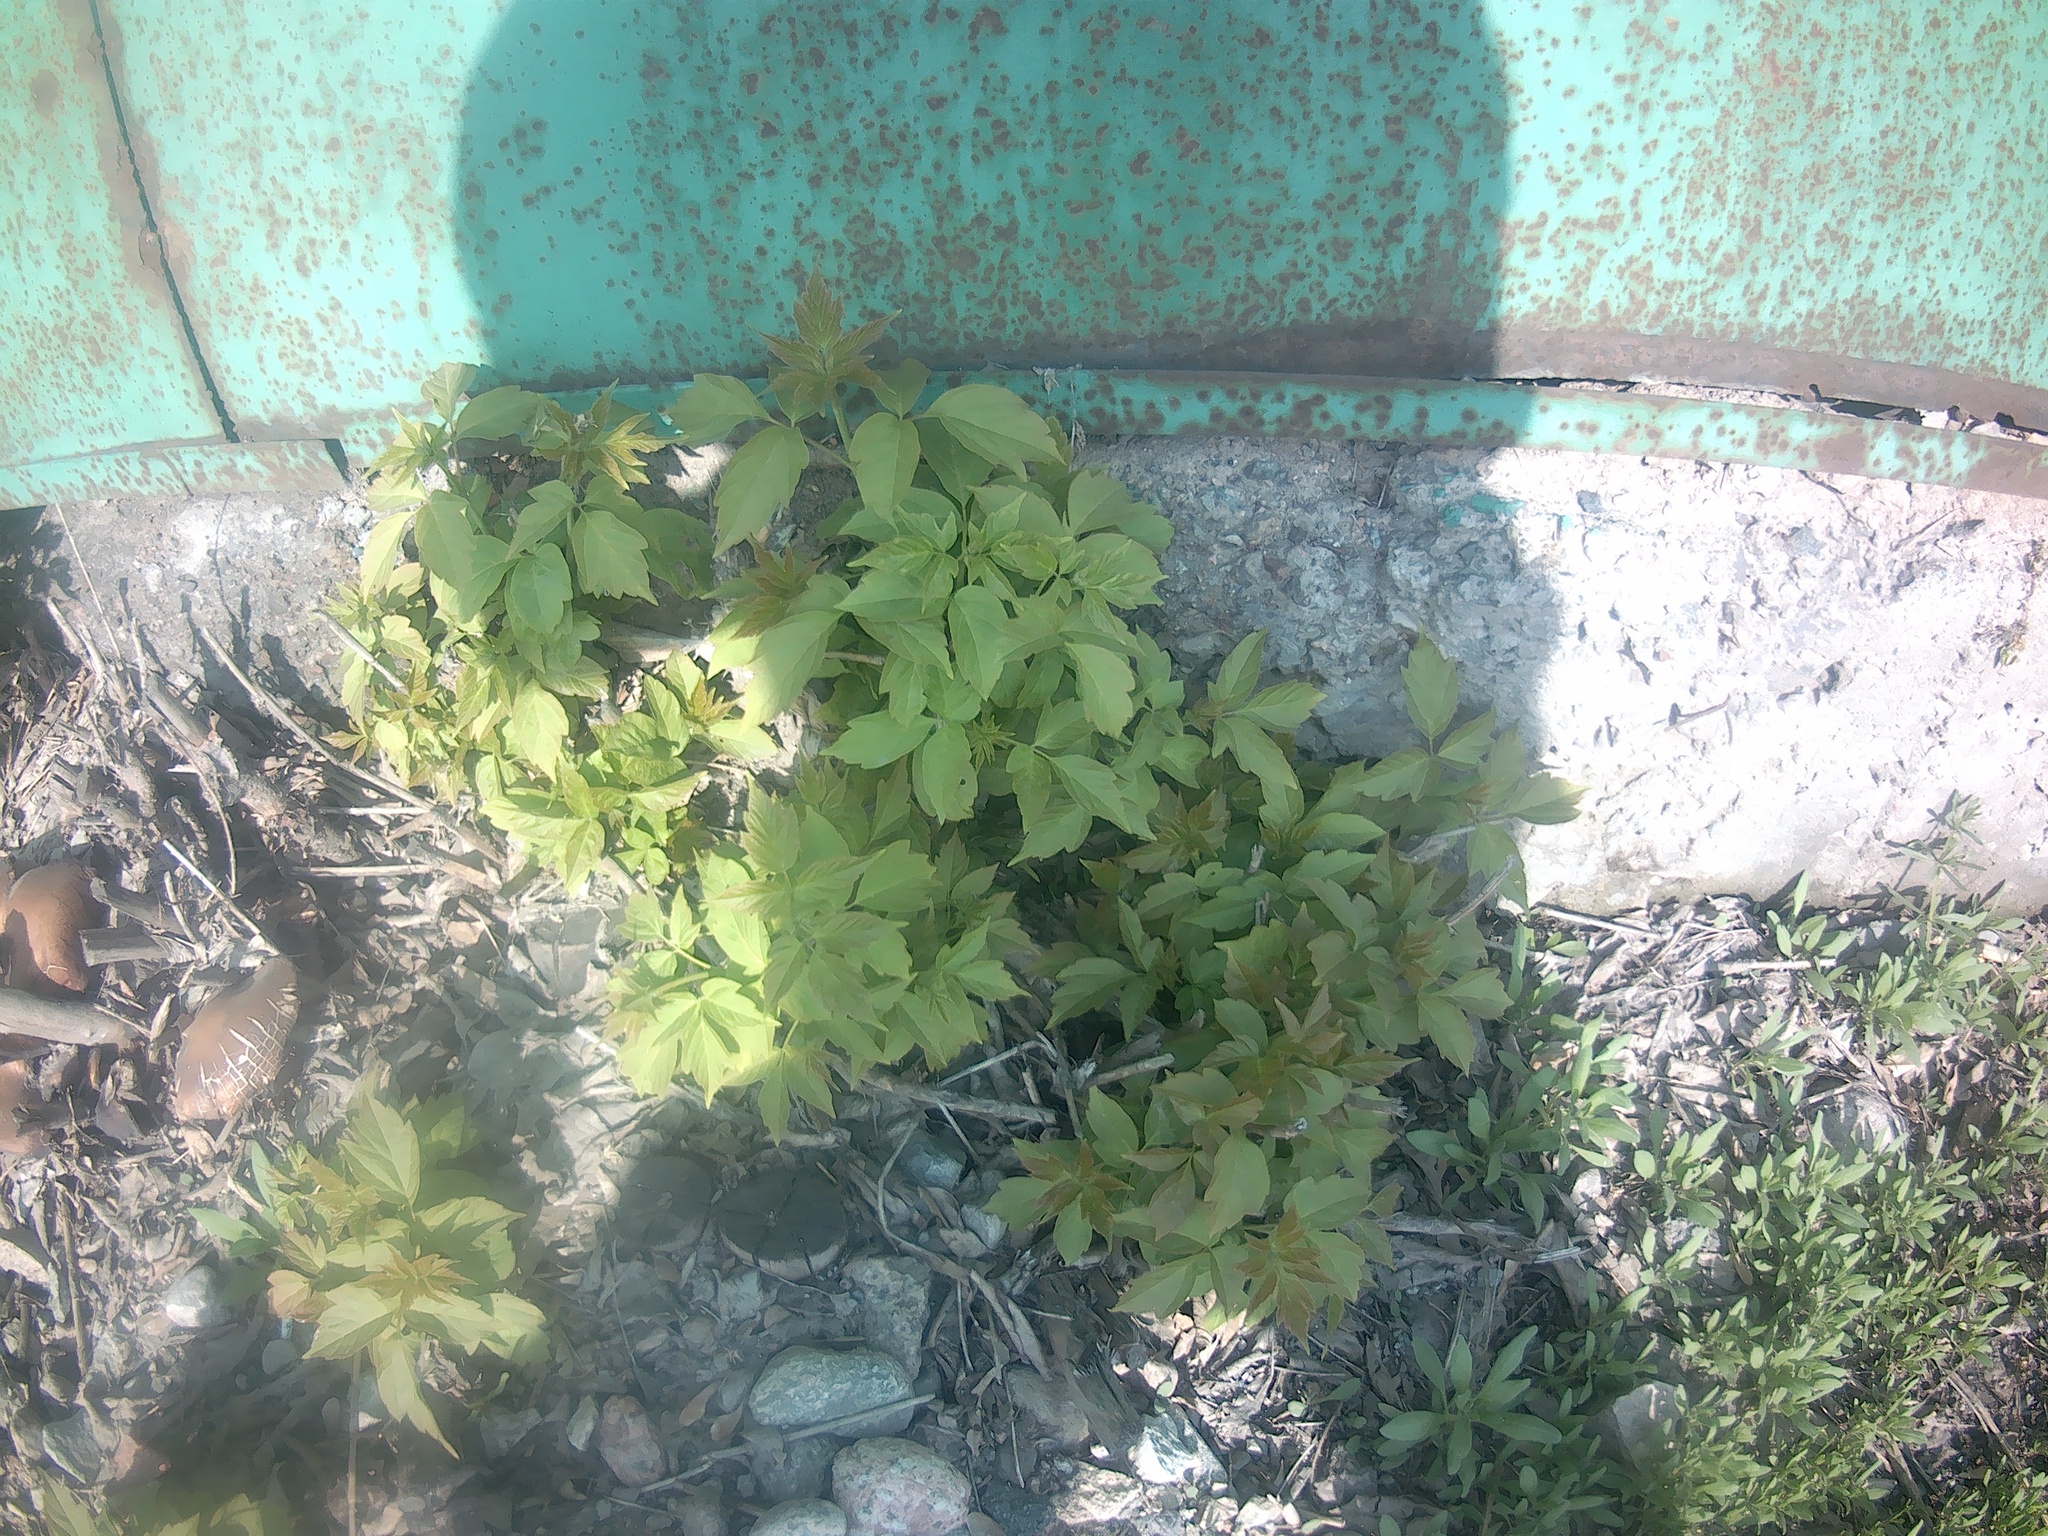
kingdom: Plantae
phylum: Tracheophyta
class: Magnoliopsida
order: Sapindales
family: Sapindaceae
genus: Acer
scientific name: Acer negundo
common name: Ashleaf maple
